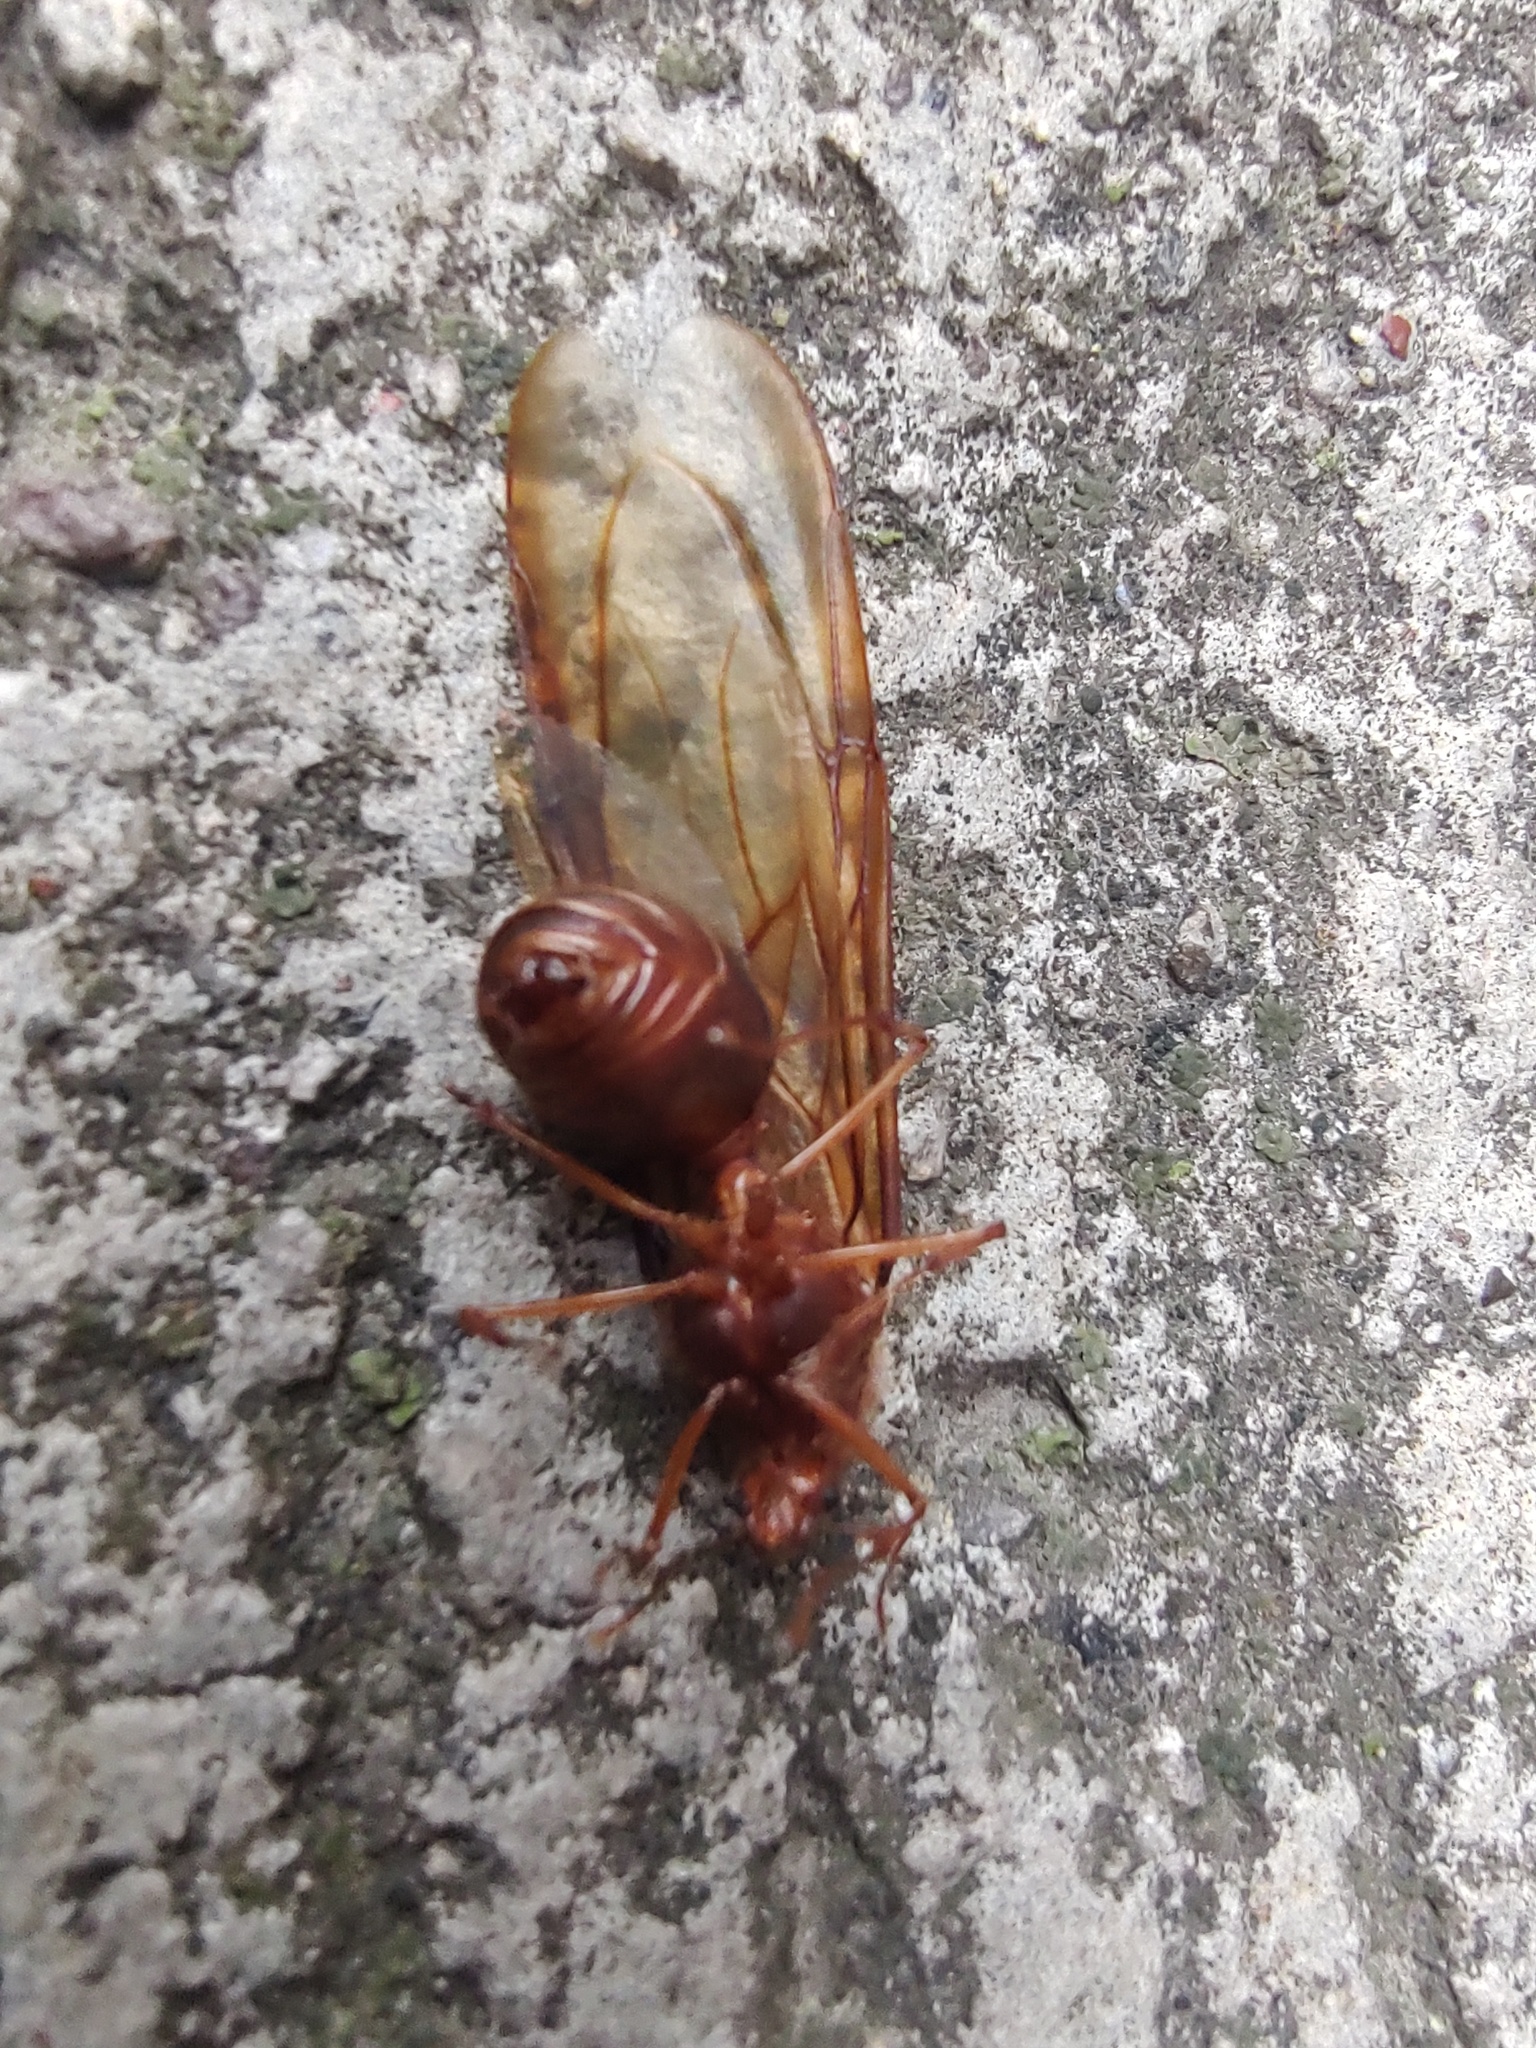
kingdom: Animalia
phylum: Arthropoda
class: Insecta
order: Hymenoptera
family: Formicidae
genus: Atta
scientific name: Atta mexicana
